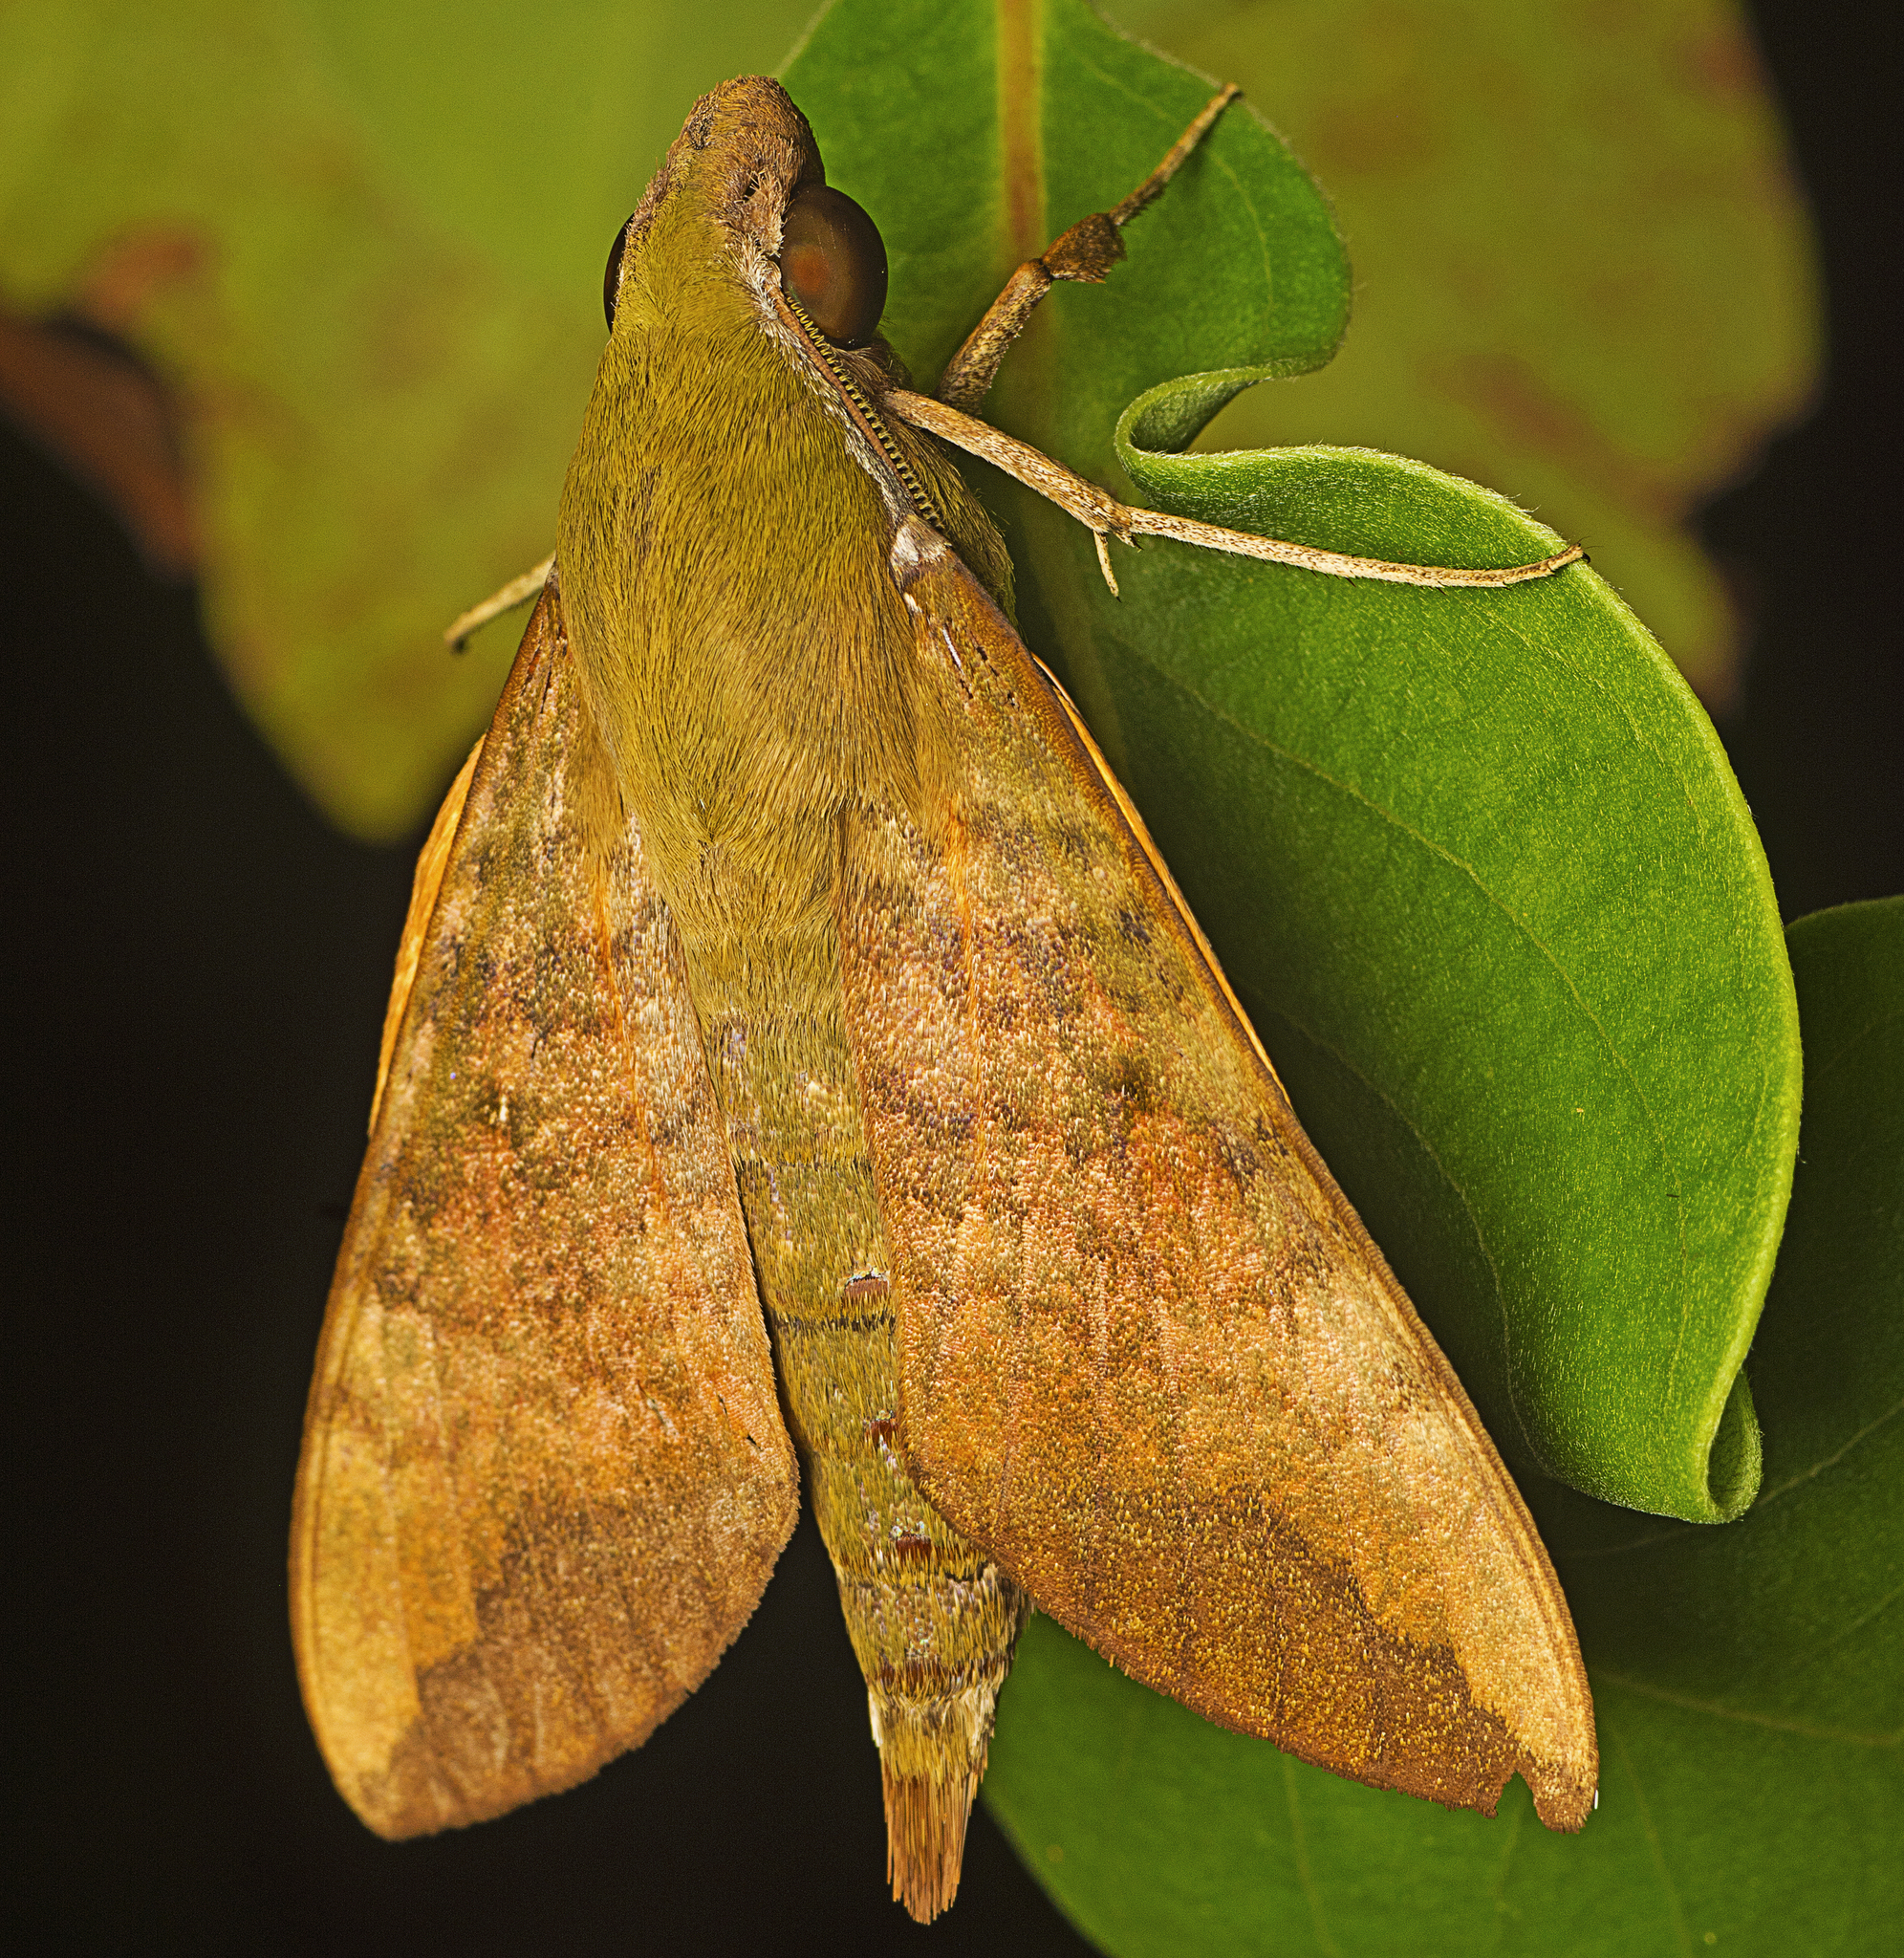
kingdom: Animalia
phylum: Arthropoda
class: Insecta
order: Lepidoptera
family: Sphingidae
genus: Nephele
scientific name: Nephele subvaria
